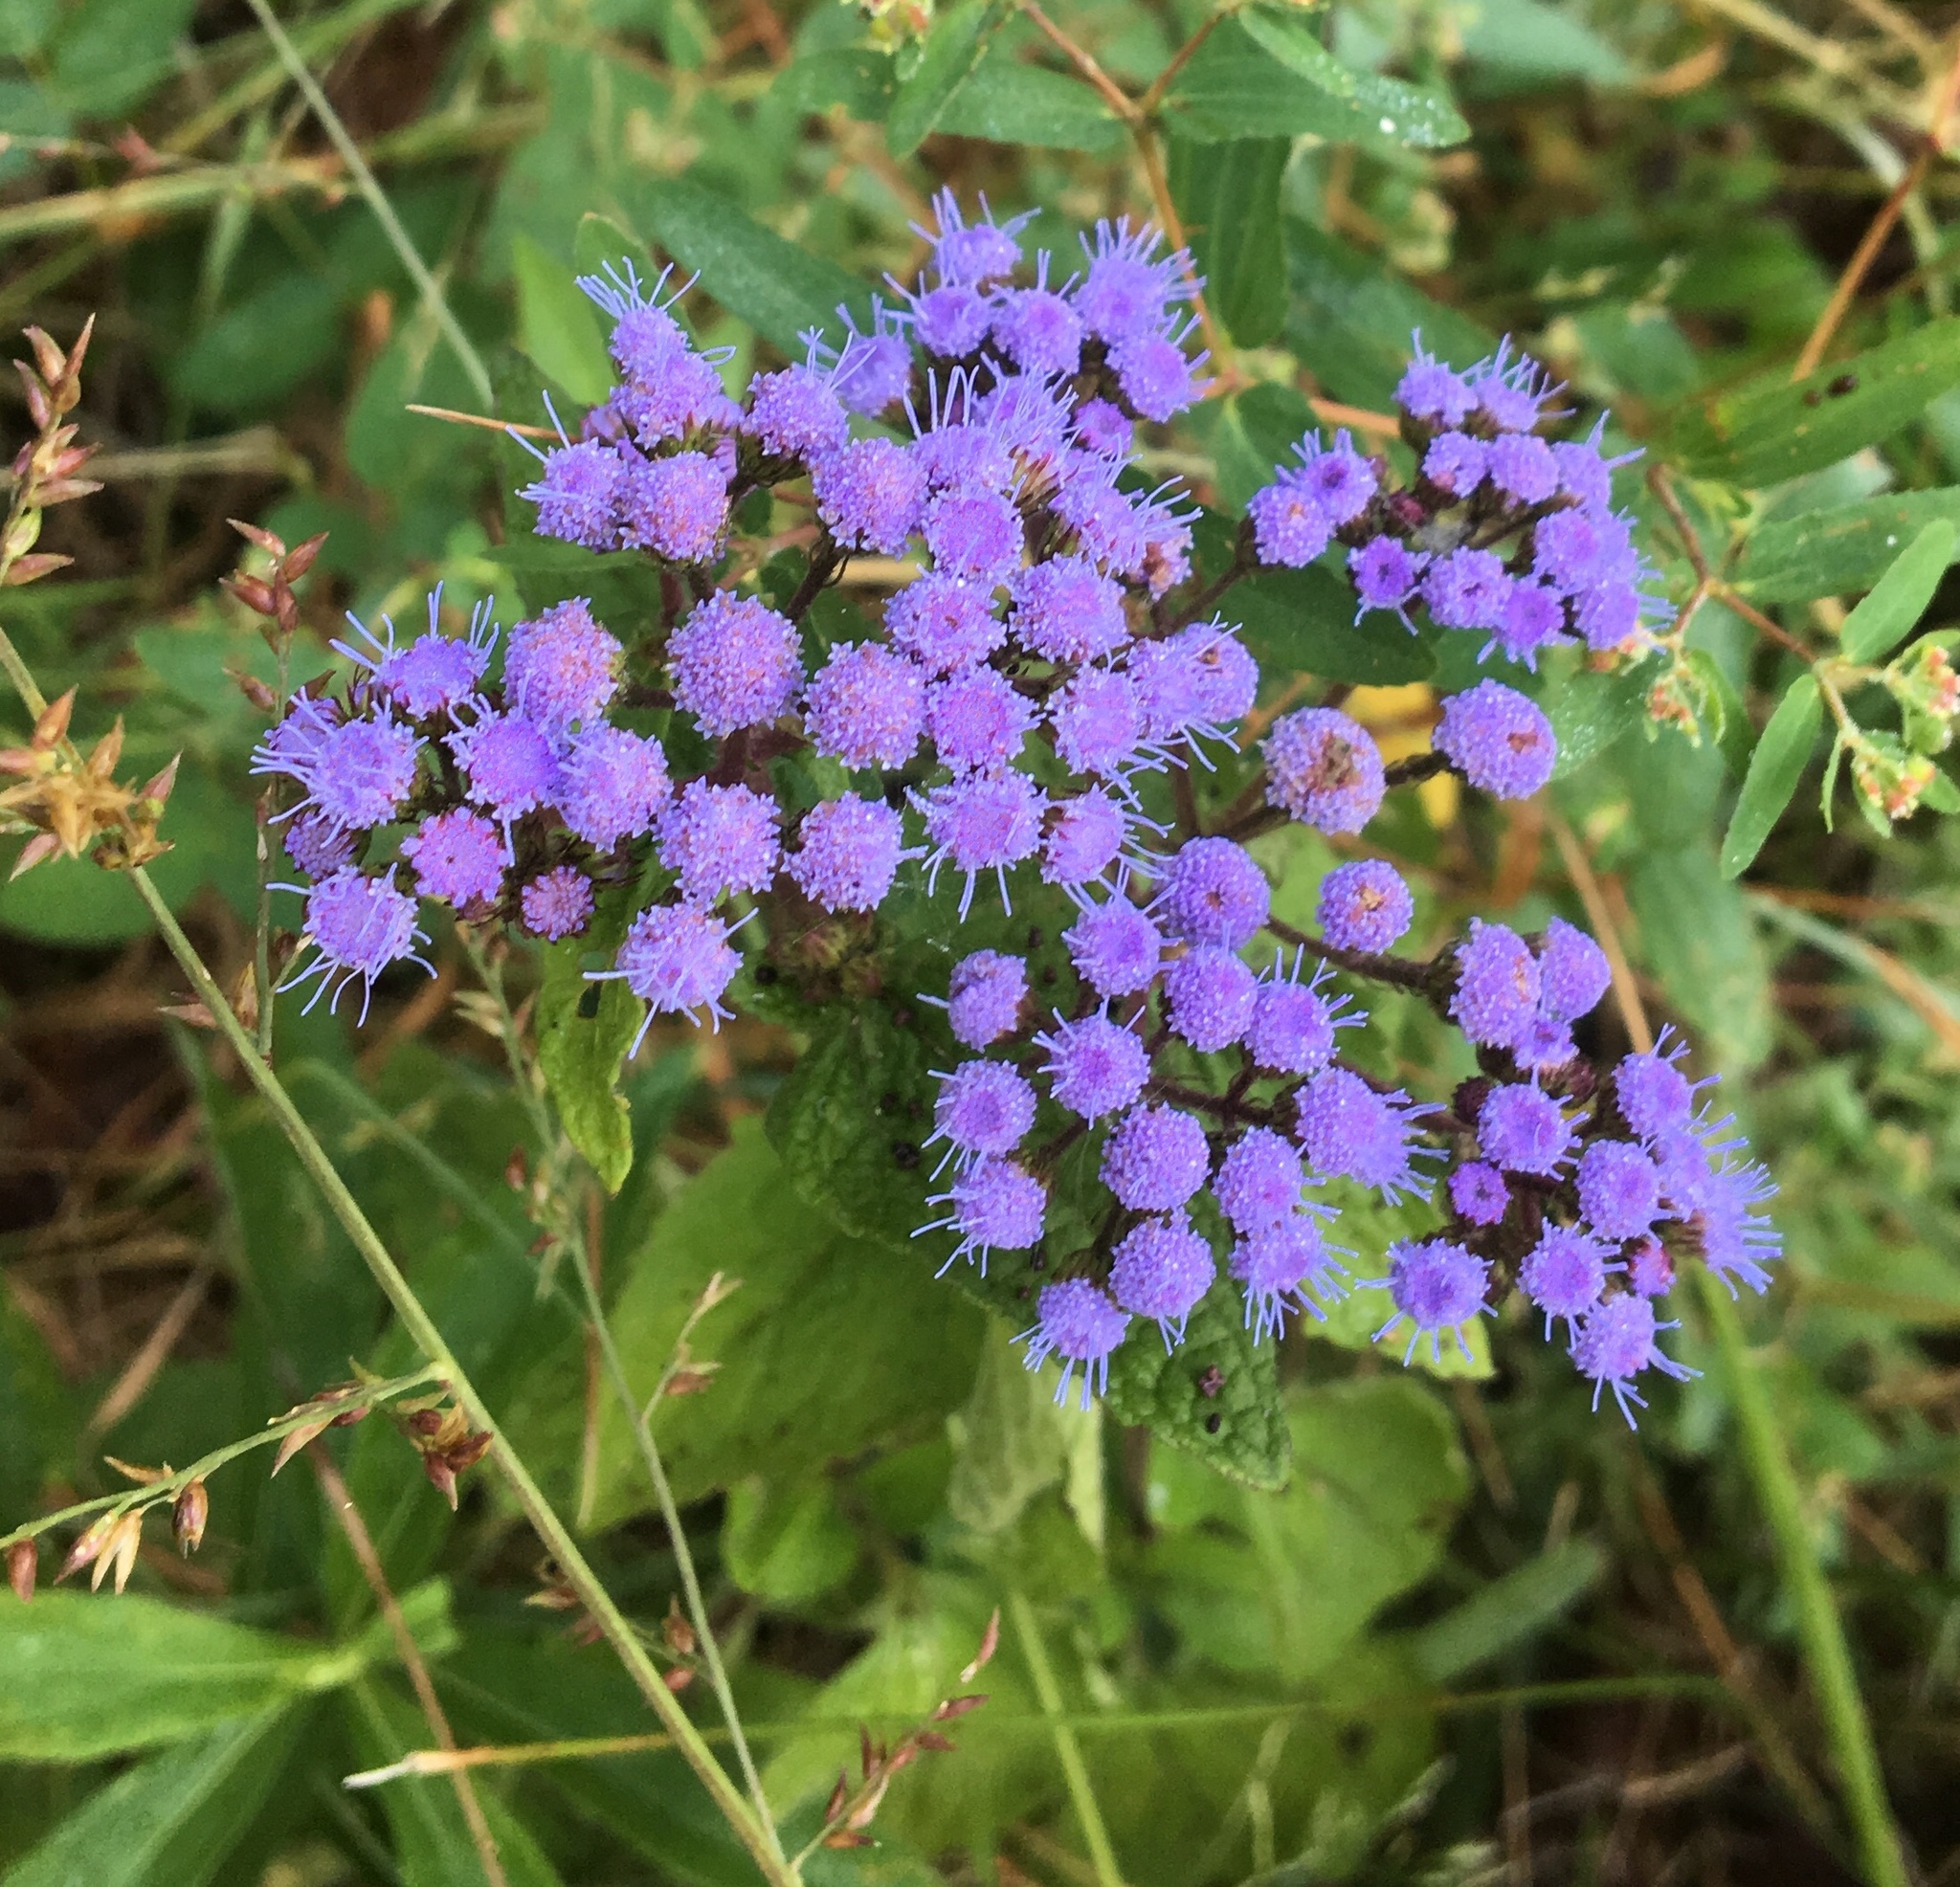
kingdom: Plantae
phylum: Tracheophyta
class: Magnoliopsida
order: Asterales
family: Asteraceae
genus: Conoclinium
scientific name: Conoclinium coelestinum
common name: Blue mistflower
